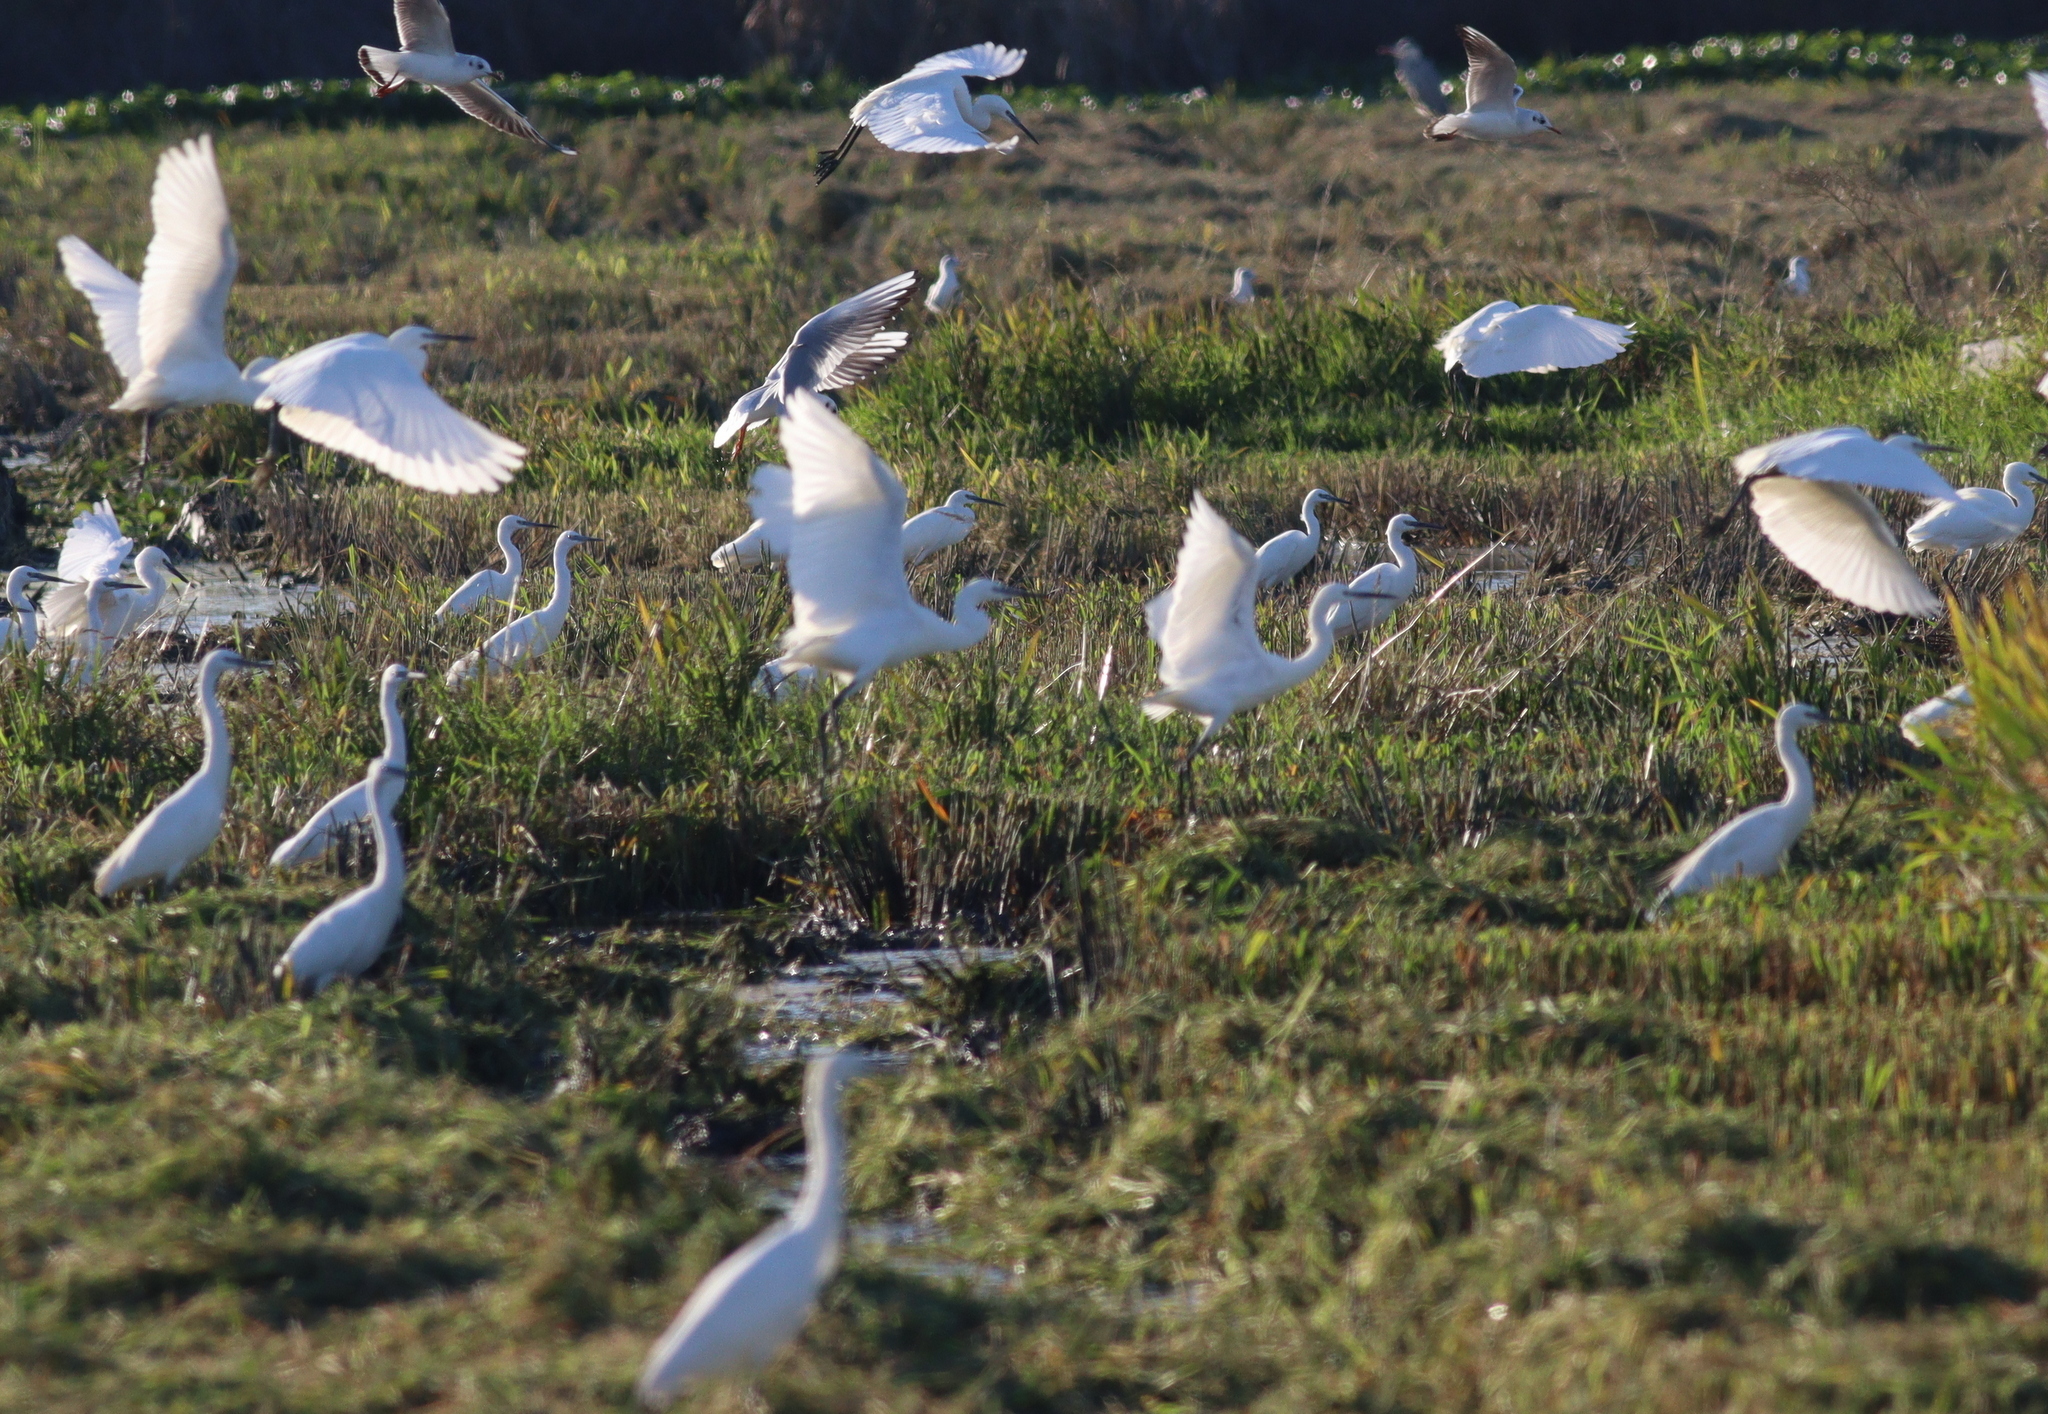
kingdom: Animalia
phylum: Chordata
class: Aves
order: Pelecaniformes
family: Ardeidae
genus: Egretta
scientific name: Egretta garzetta
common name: Little egret
